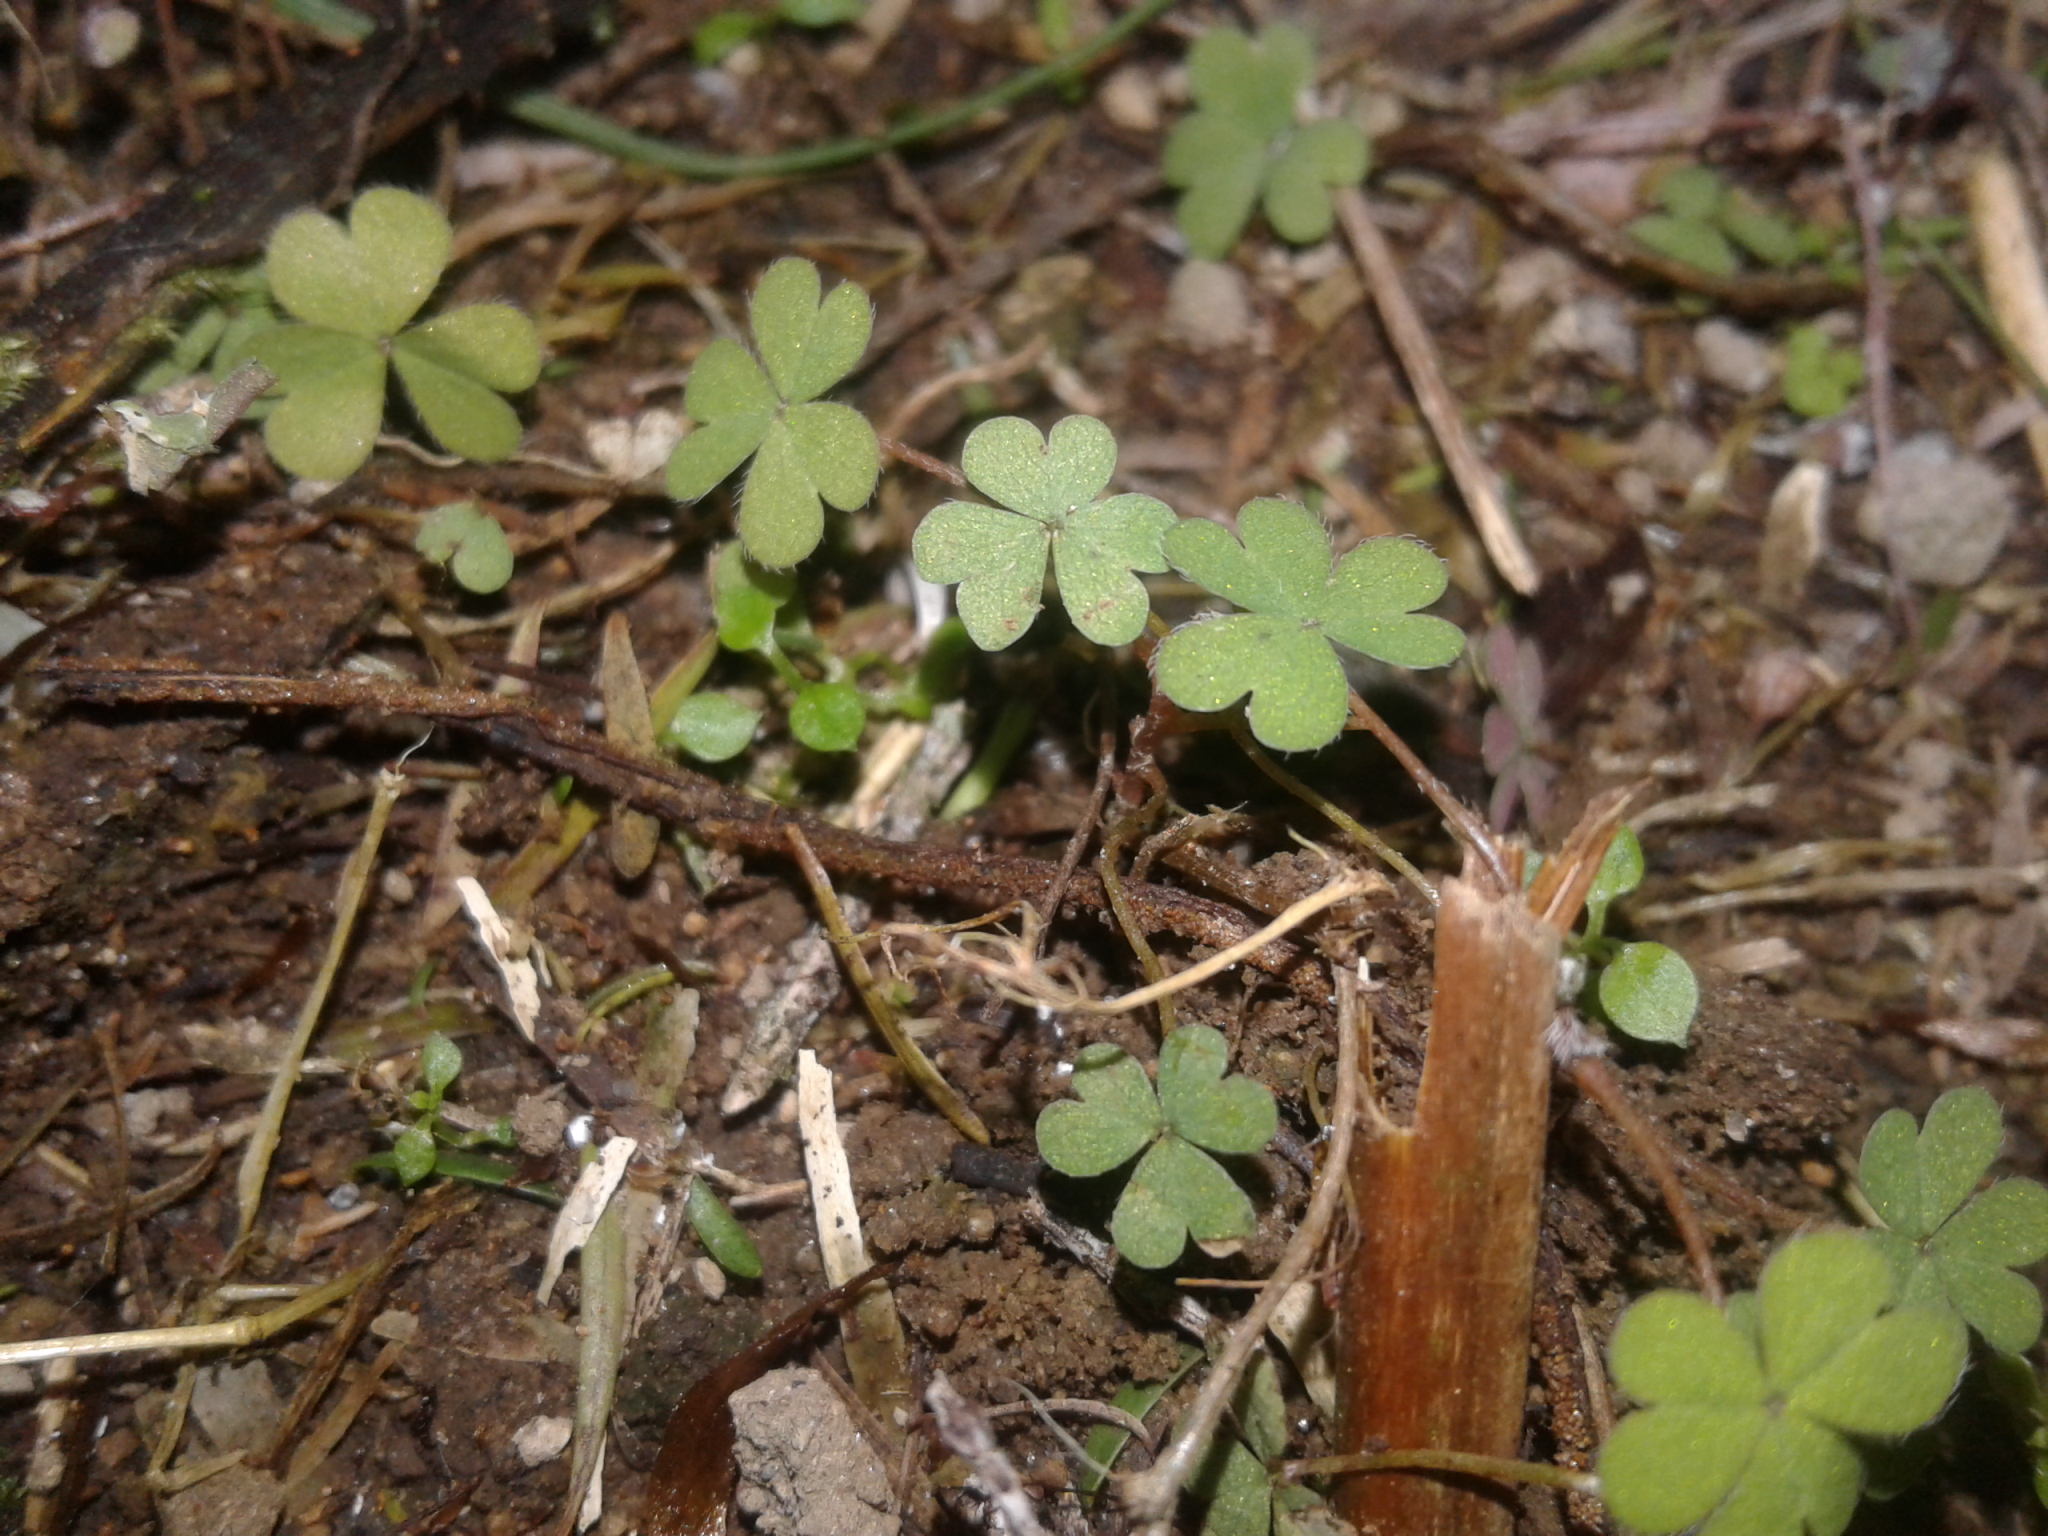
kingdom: Plantae
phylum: Tracheophyta
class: Magnoliopsida
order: Oxalidales
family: Oxalidaceae
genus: Oxalis
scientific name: Oxalis magellanica
